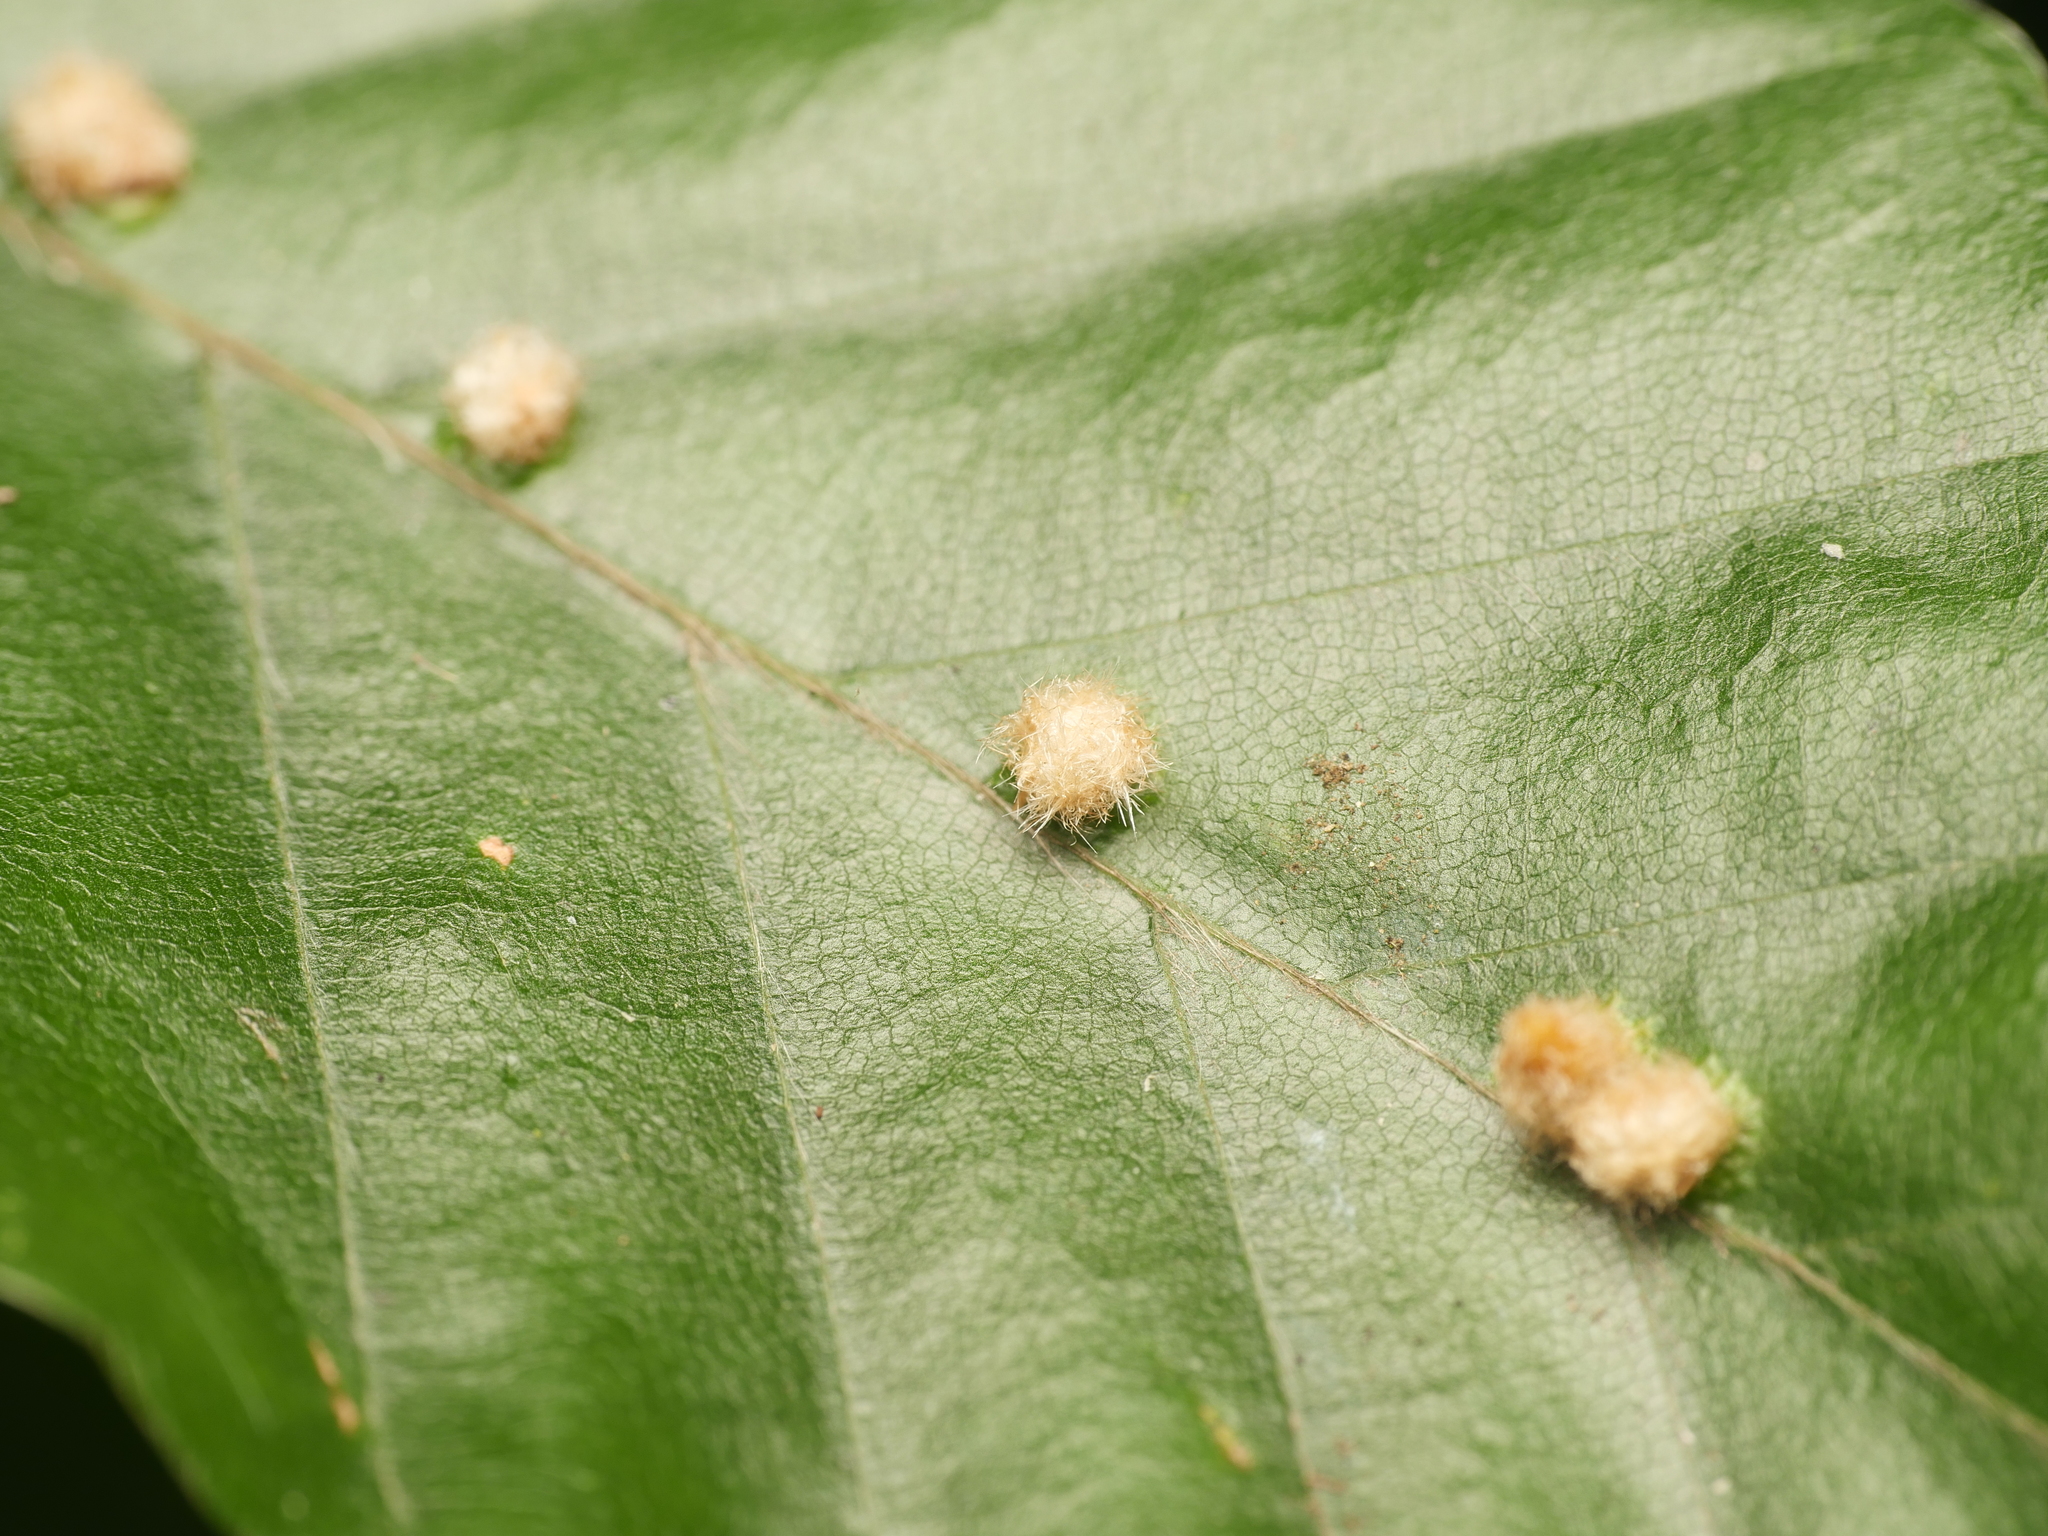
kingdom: Animalia
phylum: Arthropoda
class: Insecta
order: Diptera
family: Cecidomyiidae
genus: Hartigiola
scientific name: Hartigiola annulipes
